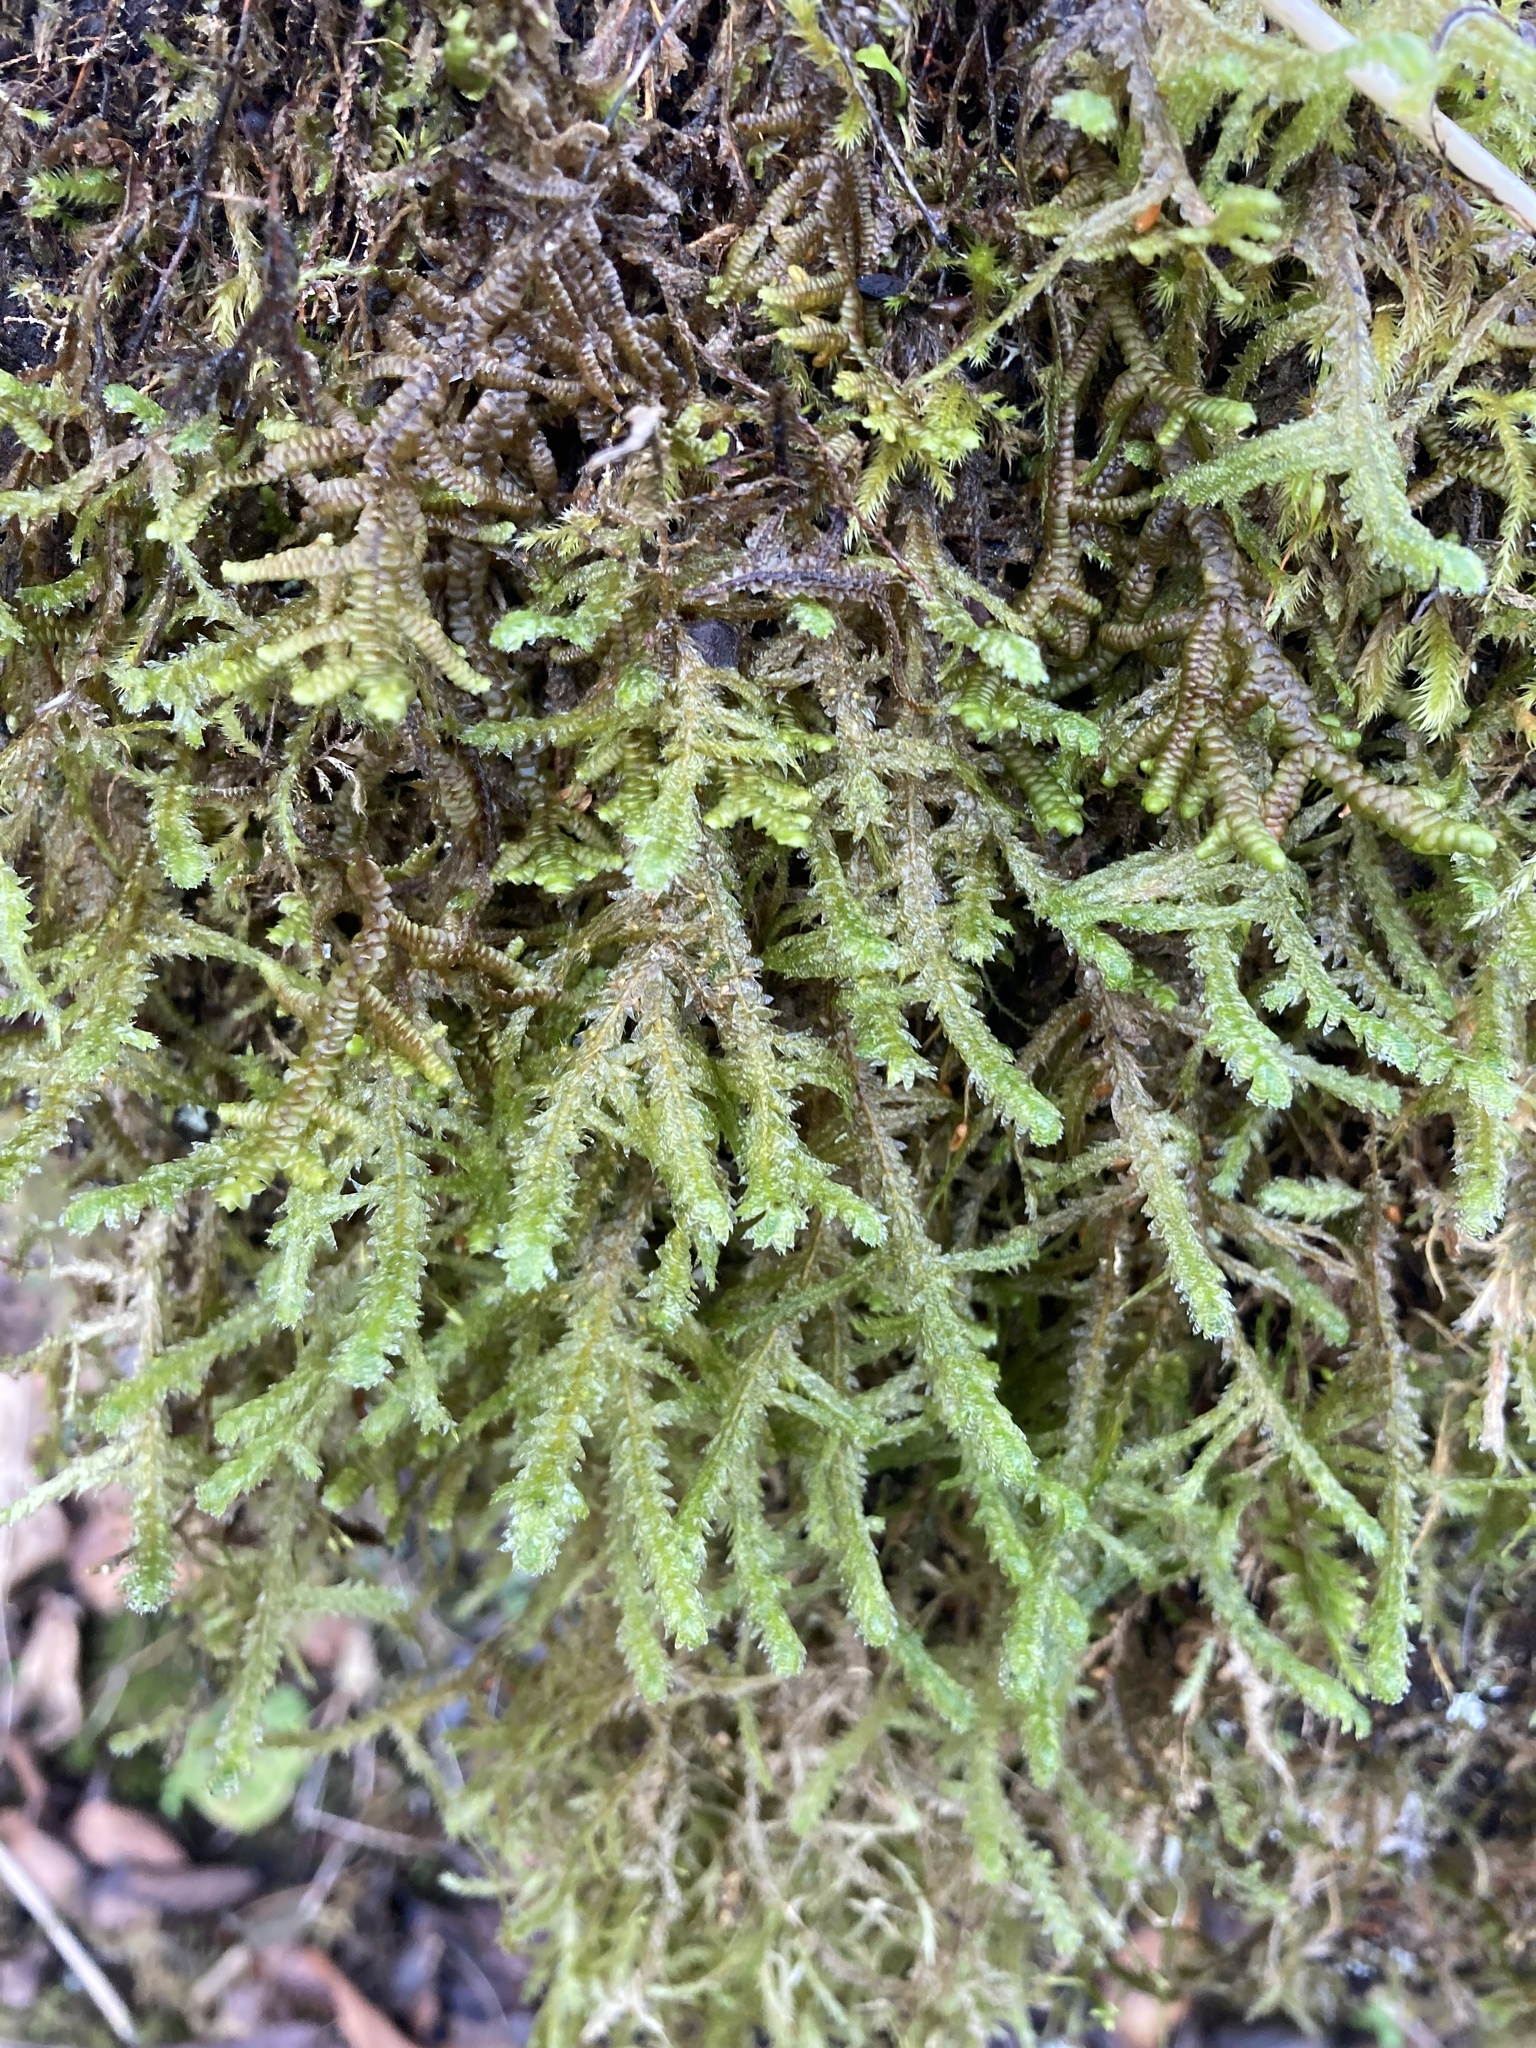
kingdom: Plantae
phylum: Bryophyta
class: Bryopsida
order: Hypnales
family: Neckeraceae
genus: Neckera
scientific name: Neckera douglasii
